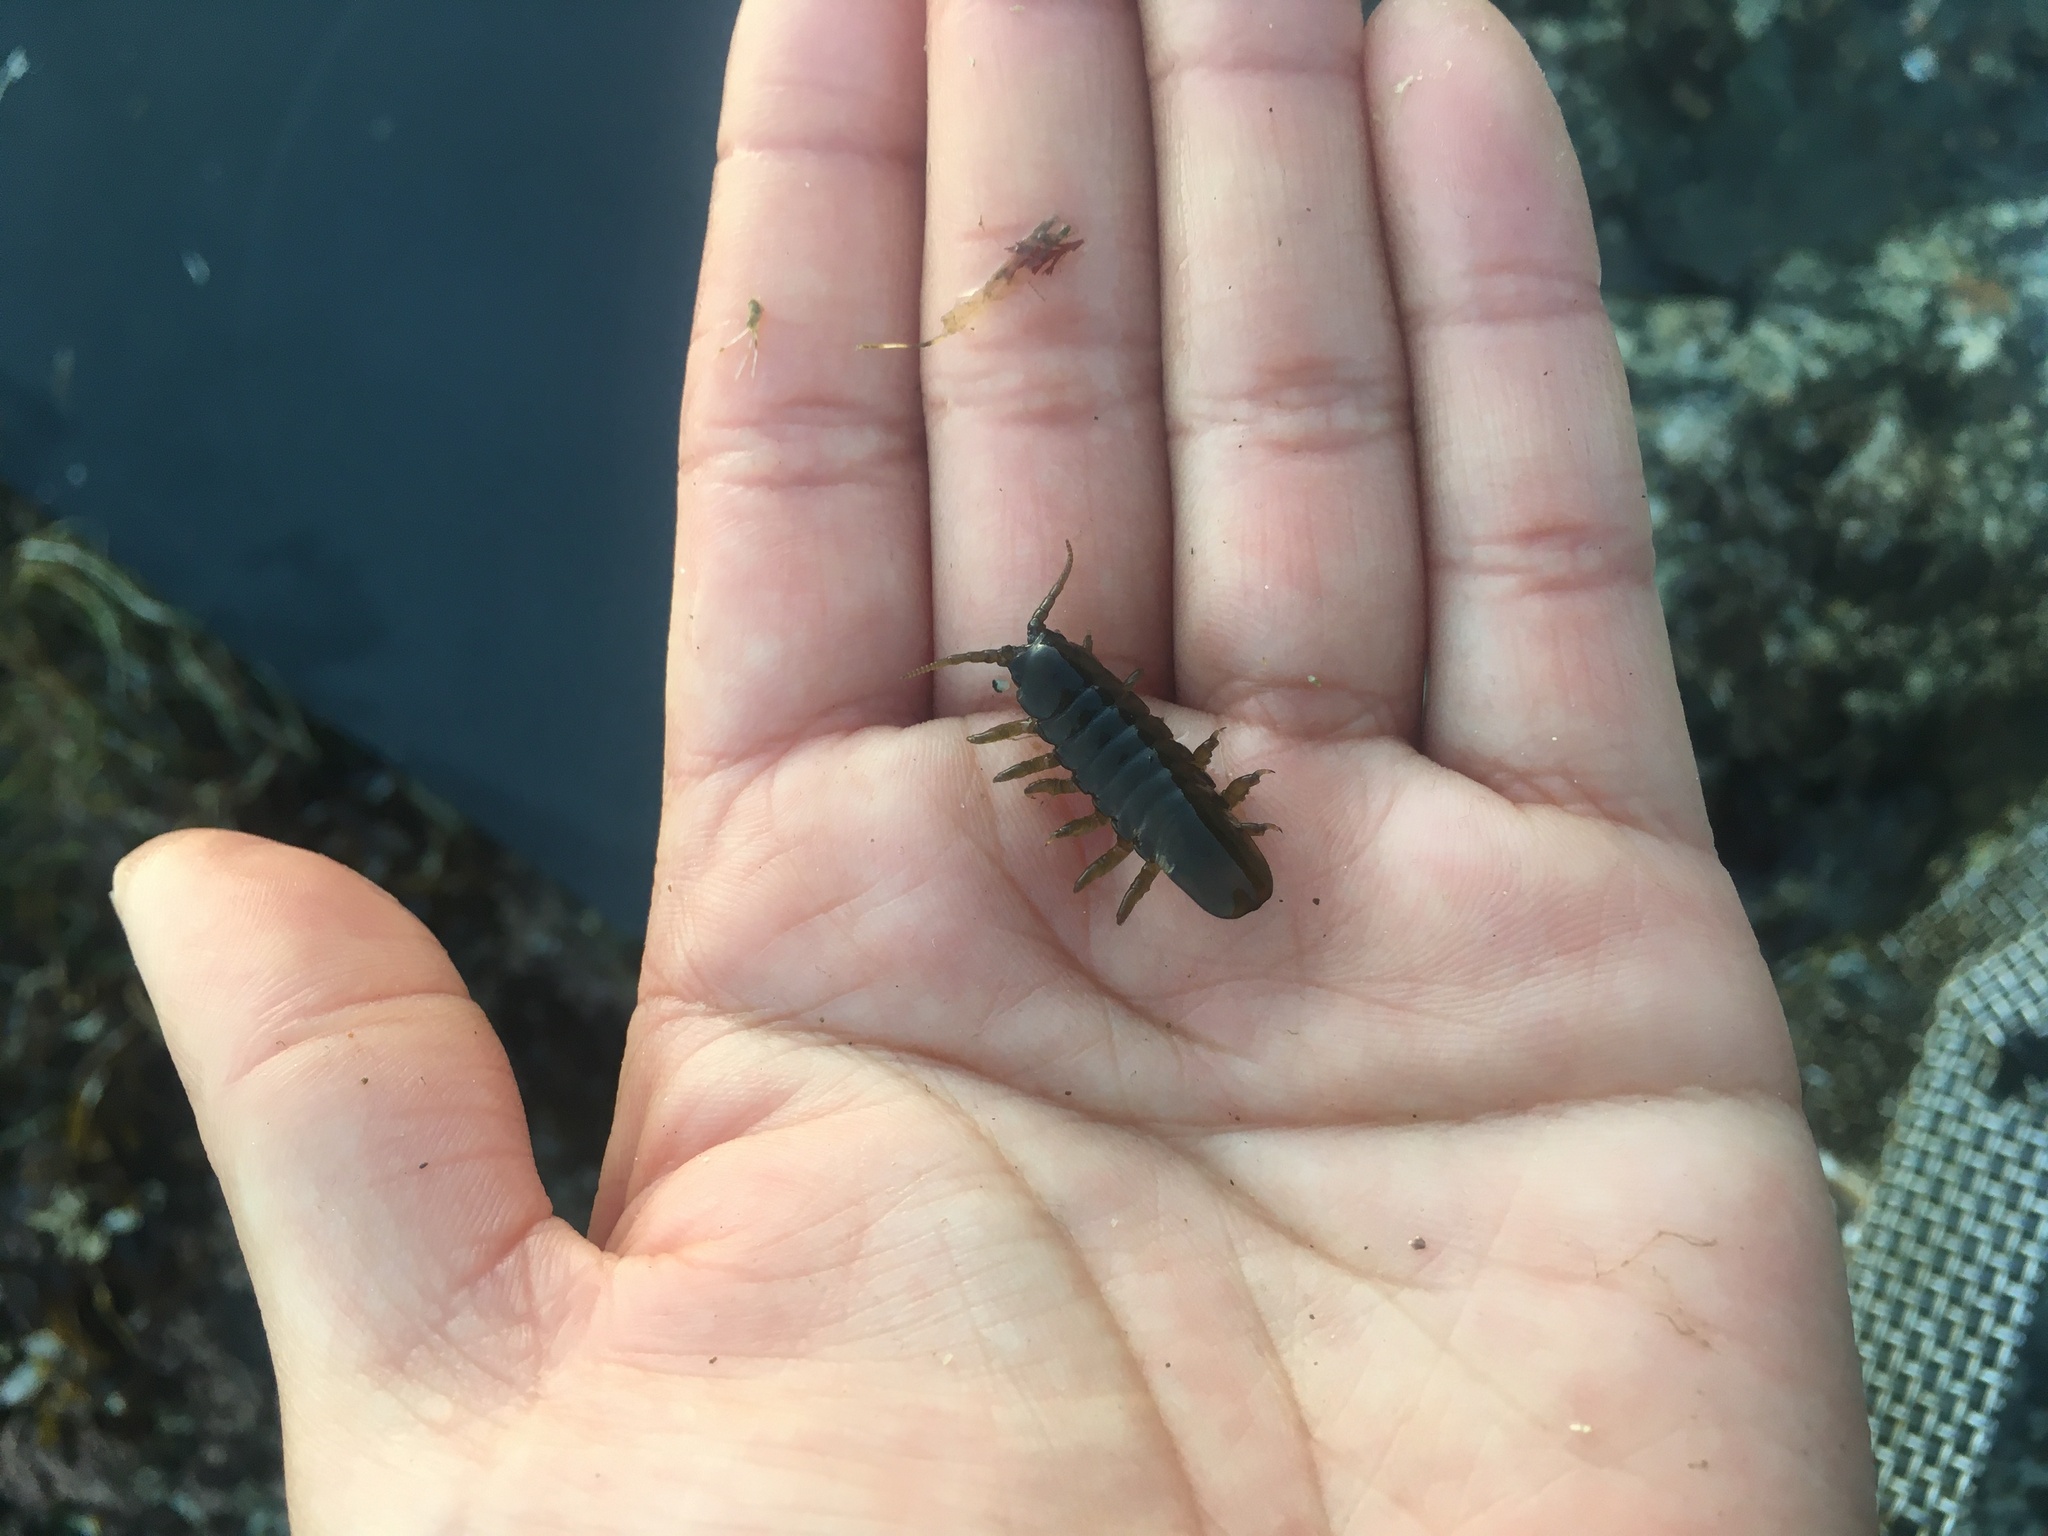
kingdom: Animalia
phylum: Arthropoda
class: Malacostraca
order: Isopoda
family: Idoteidae
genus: Pentidotea
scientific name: Pentidotea wosnesenskii
